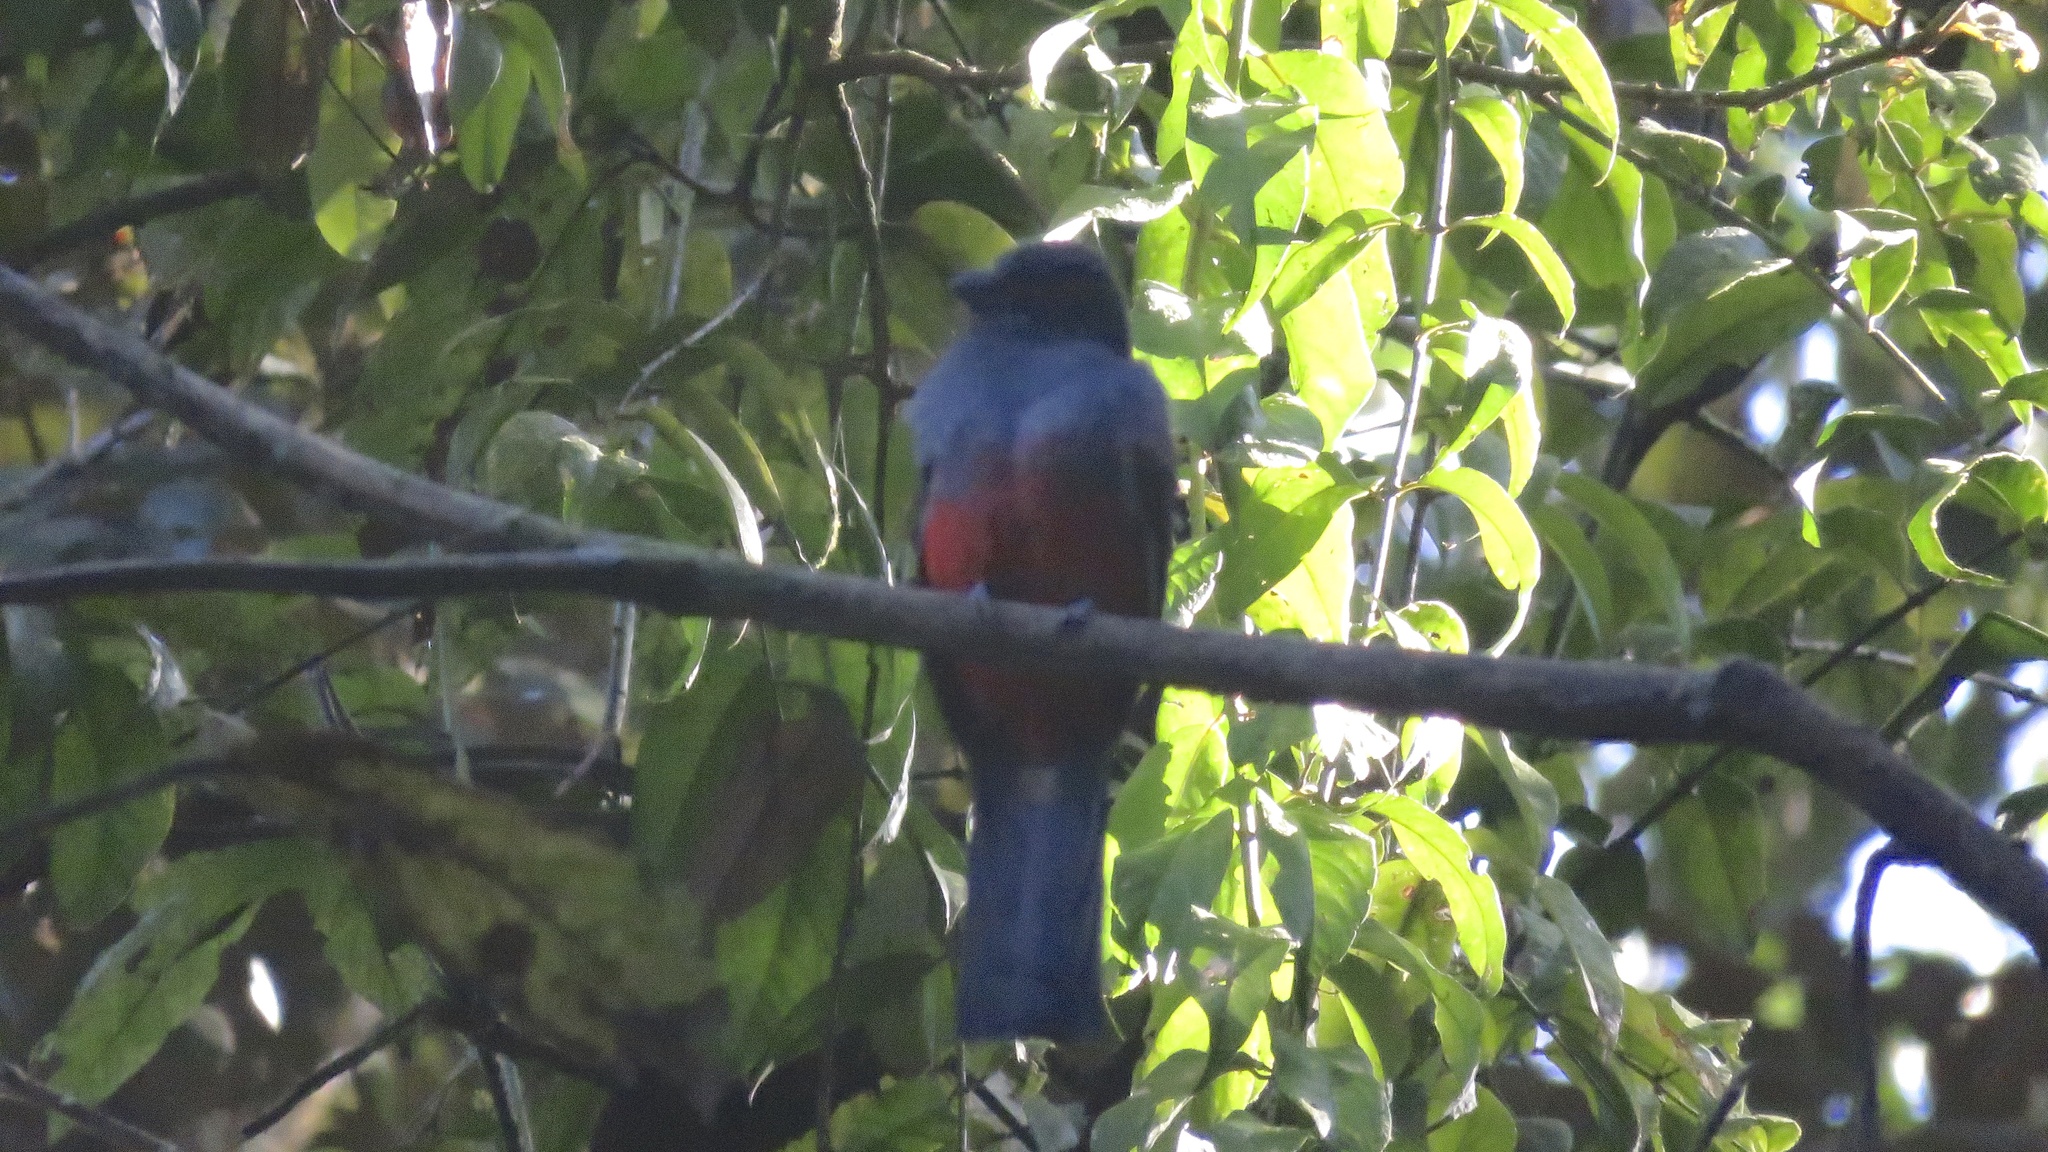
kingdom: Animalia
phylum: Chordata
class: Aves
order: Trogoniformes
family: Trogonidae
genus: Trogon
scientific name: Trogon massena
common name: Slaty-tailed trogon
